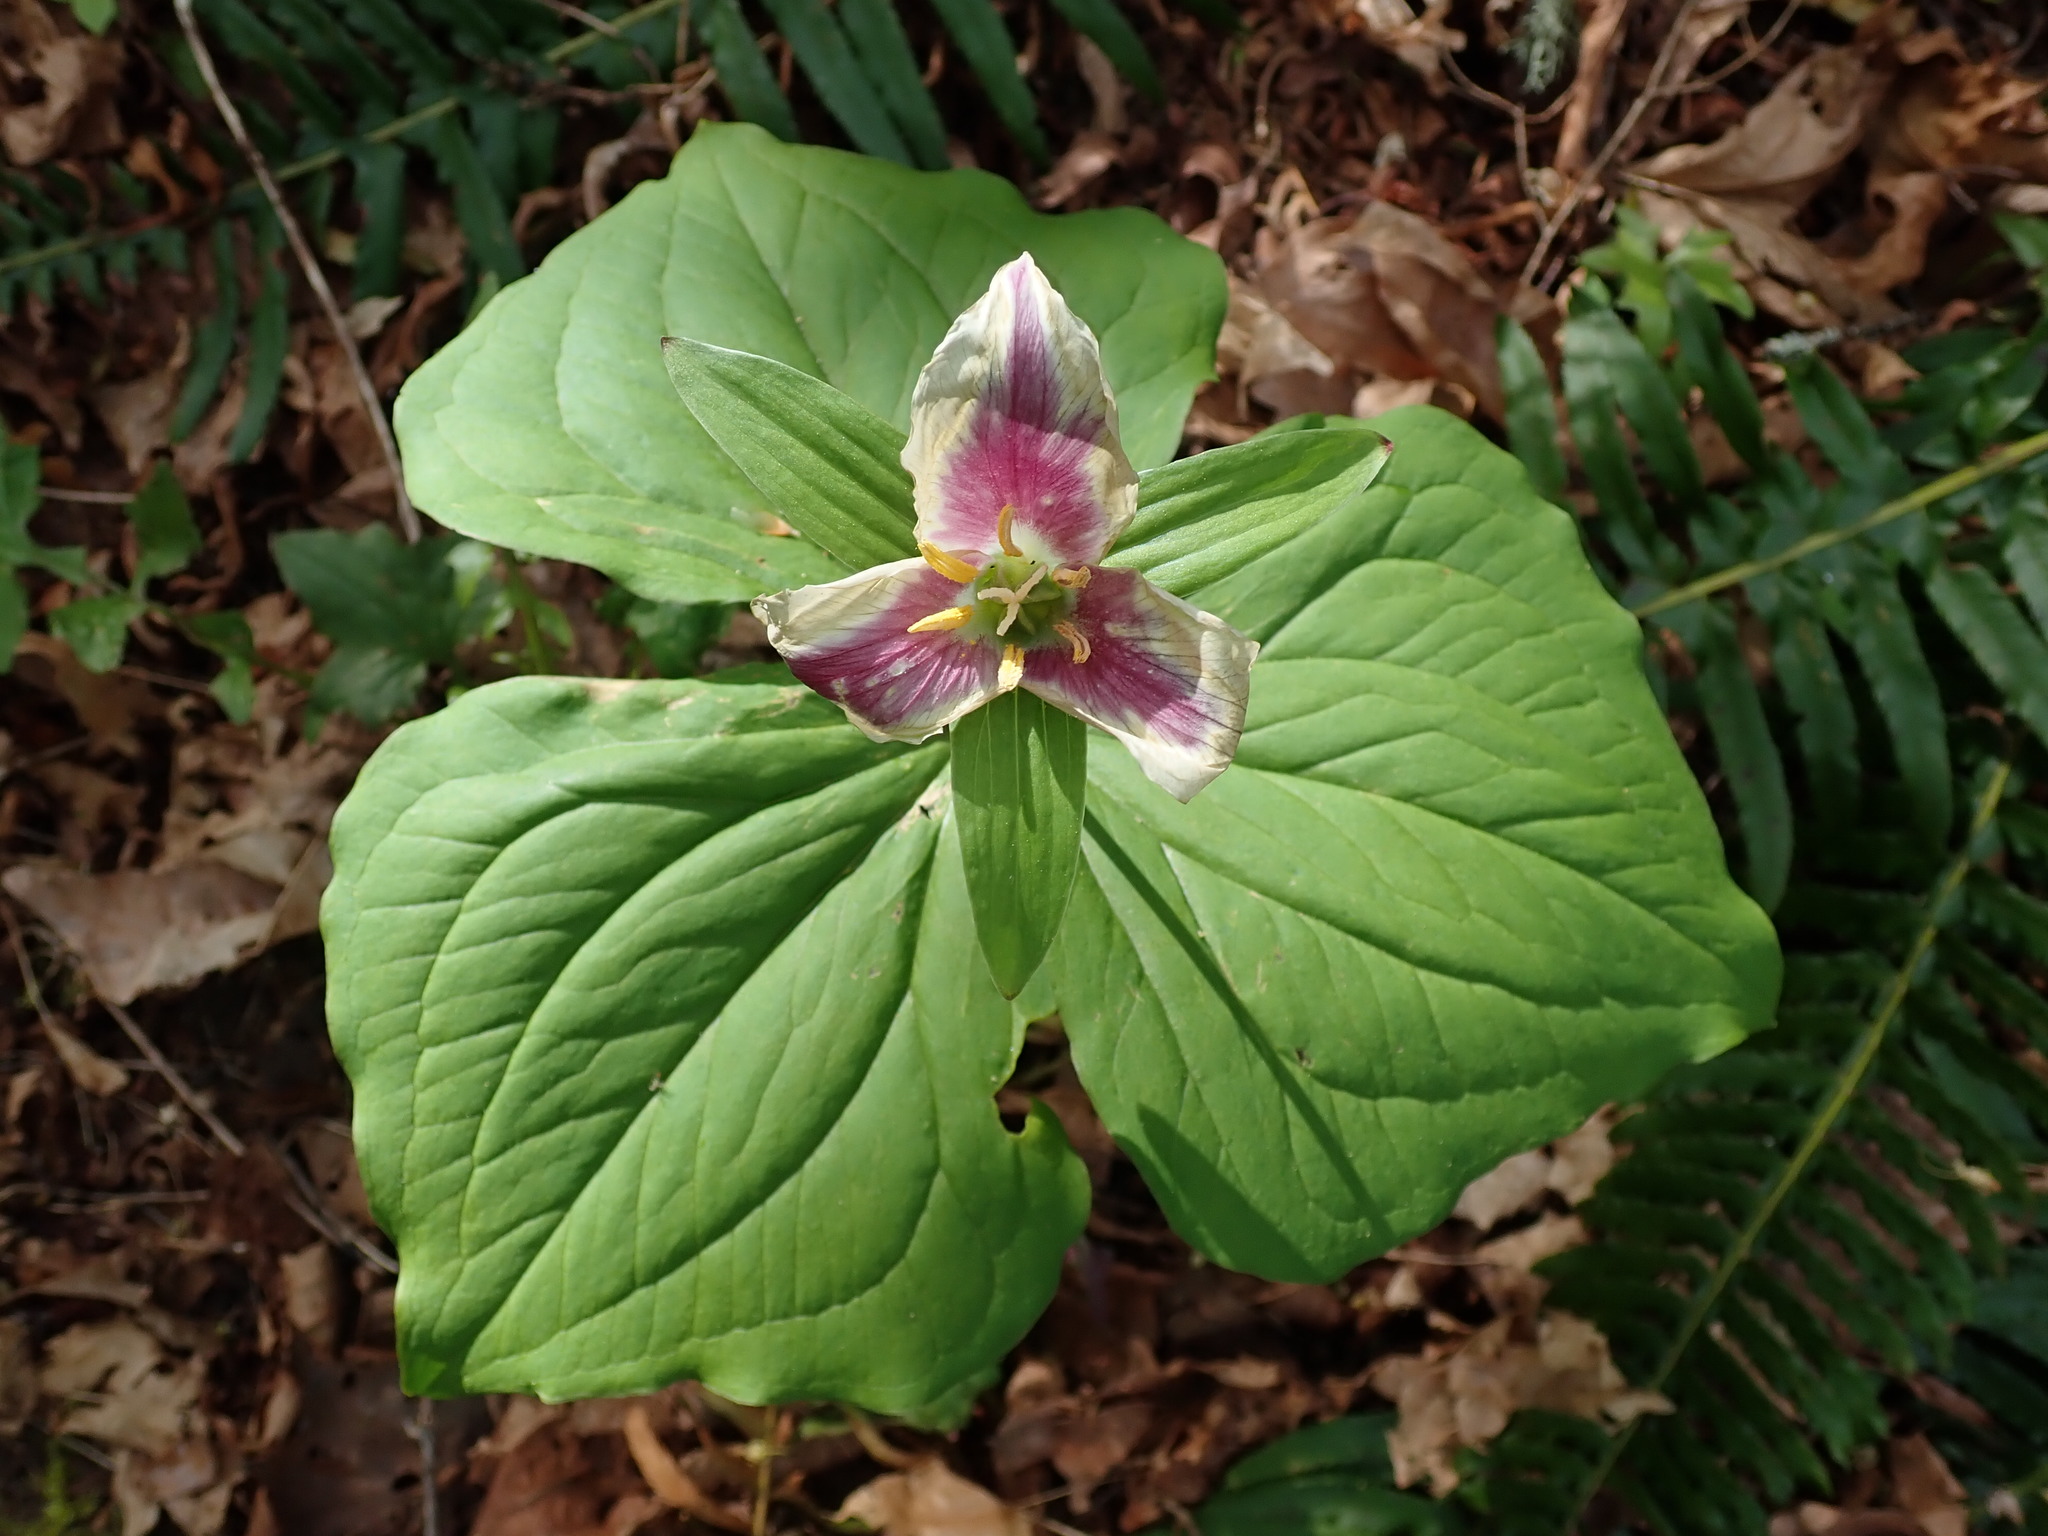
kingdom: Plantae
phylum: Tracheophyta
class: Liliopsida
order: Liliales
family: Melanthiaceae
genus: Trillium
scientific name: Trillium ovatum
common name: Pacific trillium
